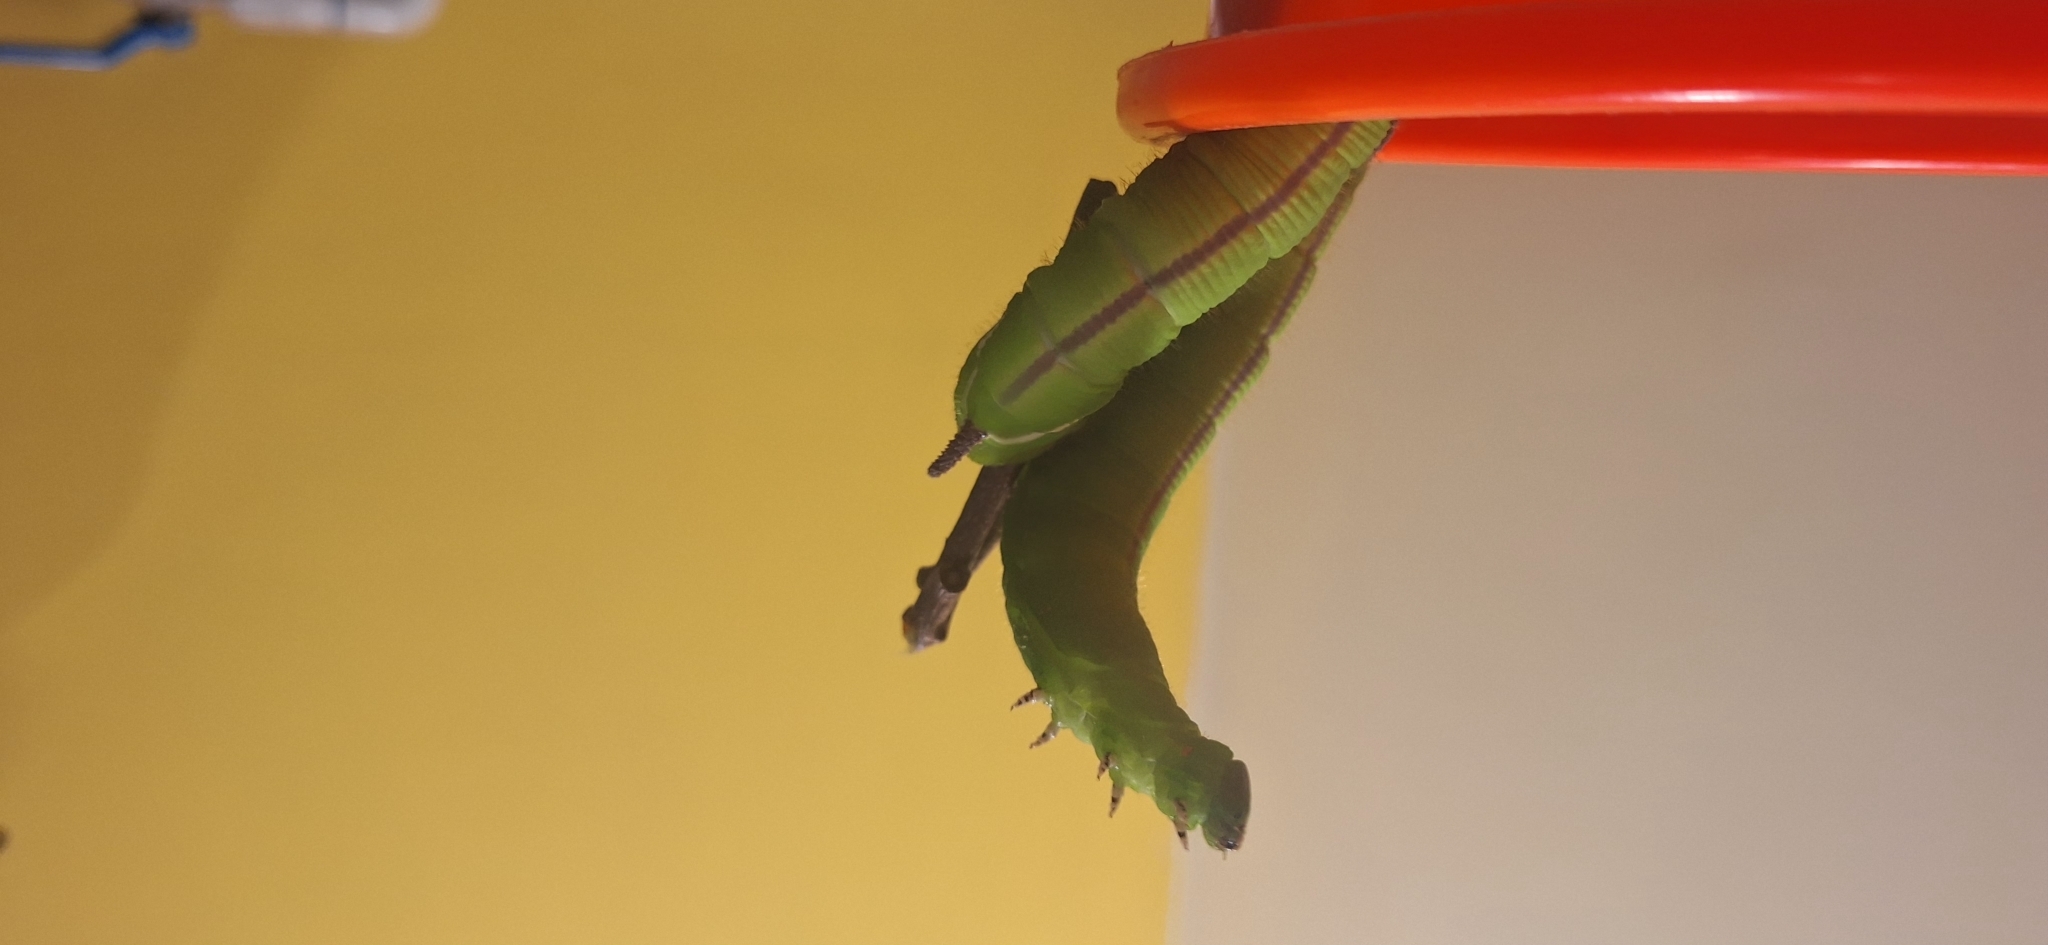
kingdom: Animalia
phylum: Arthropoda
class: Insecta
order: Lepidoptera
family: Sphingidae
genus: Cocytius
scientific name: Cocytius antaeus
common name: Giant sphinx
